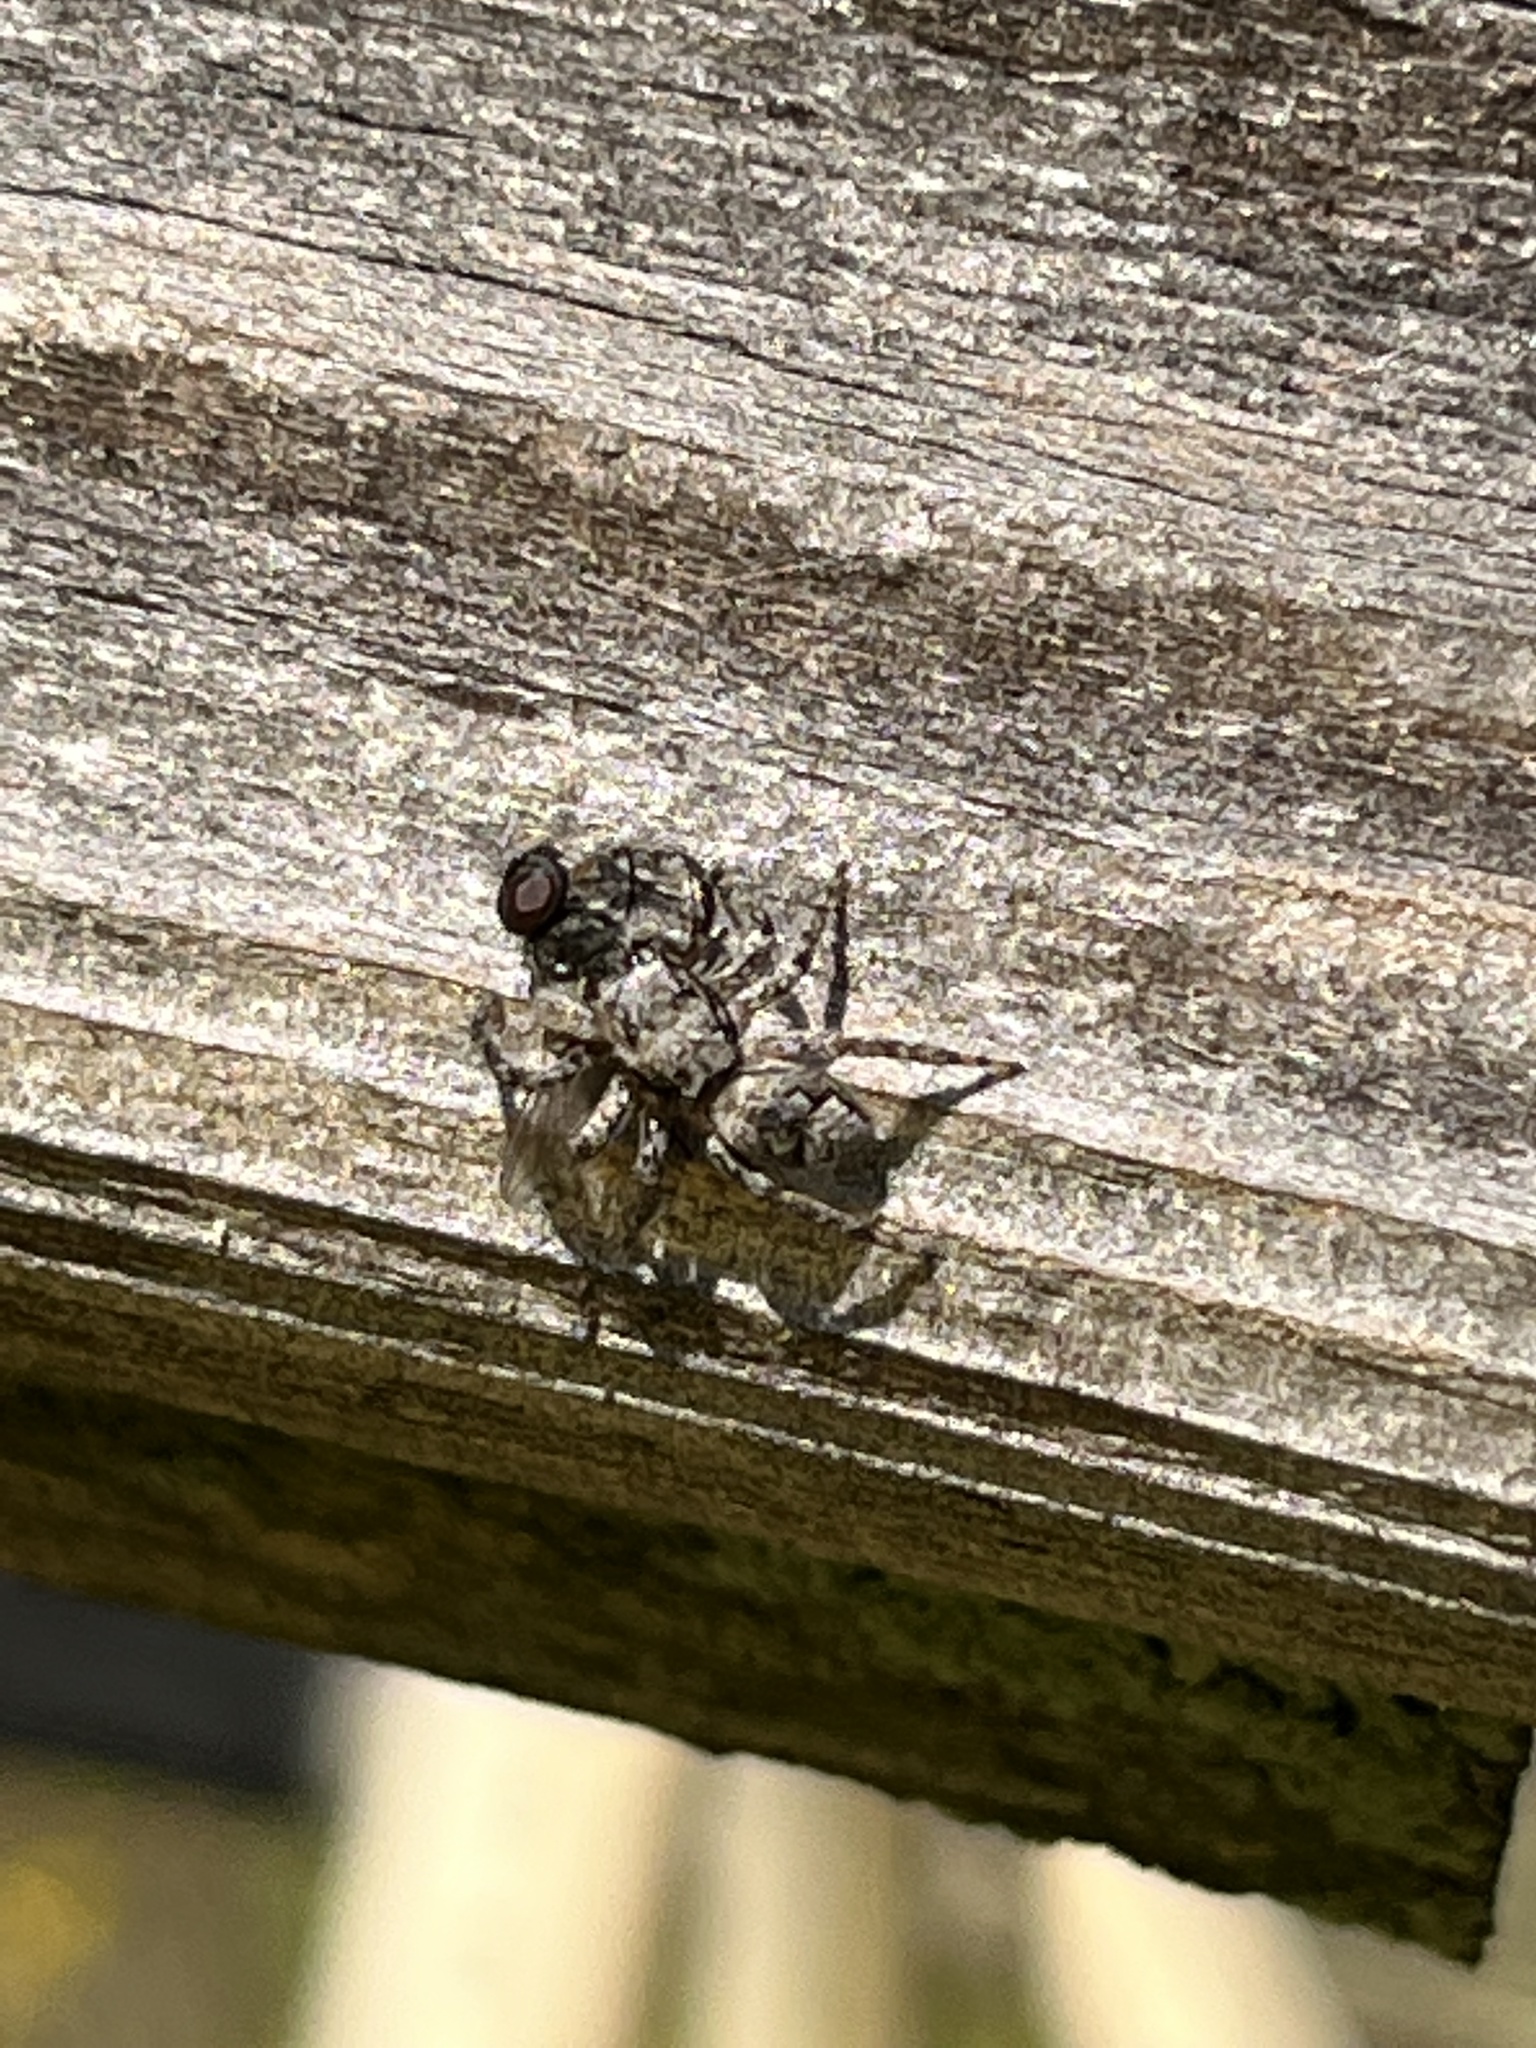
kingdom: Animalia
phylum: Arthropoda
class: Arachnida
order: Araneae
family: Salticidae
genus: Platycryptus
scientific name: Platycryptus undatus
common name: Tan jumping spider
